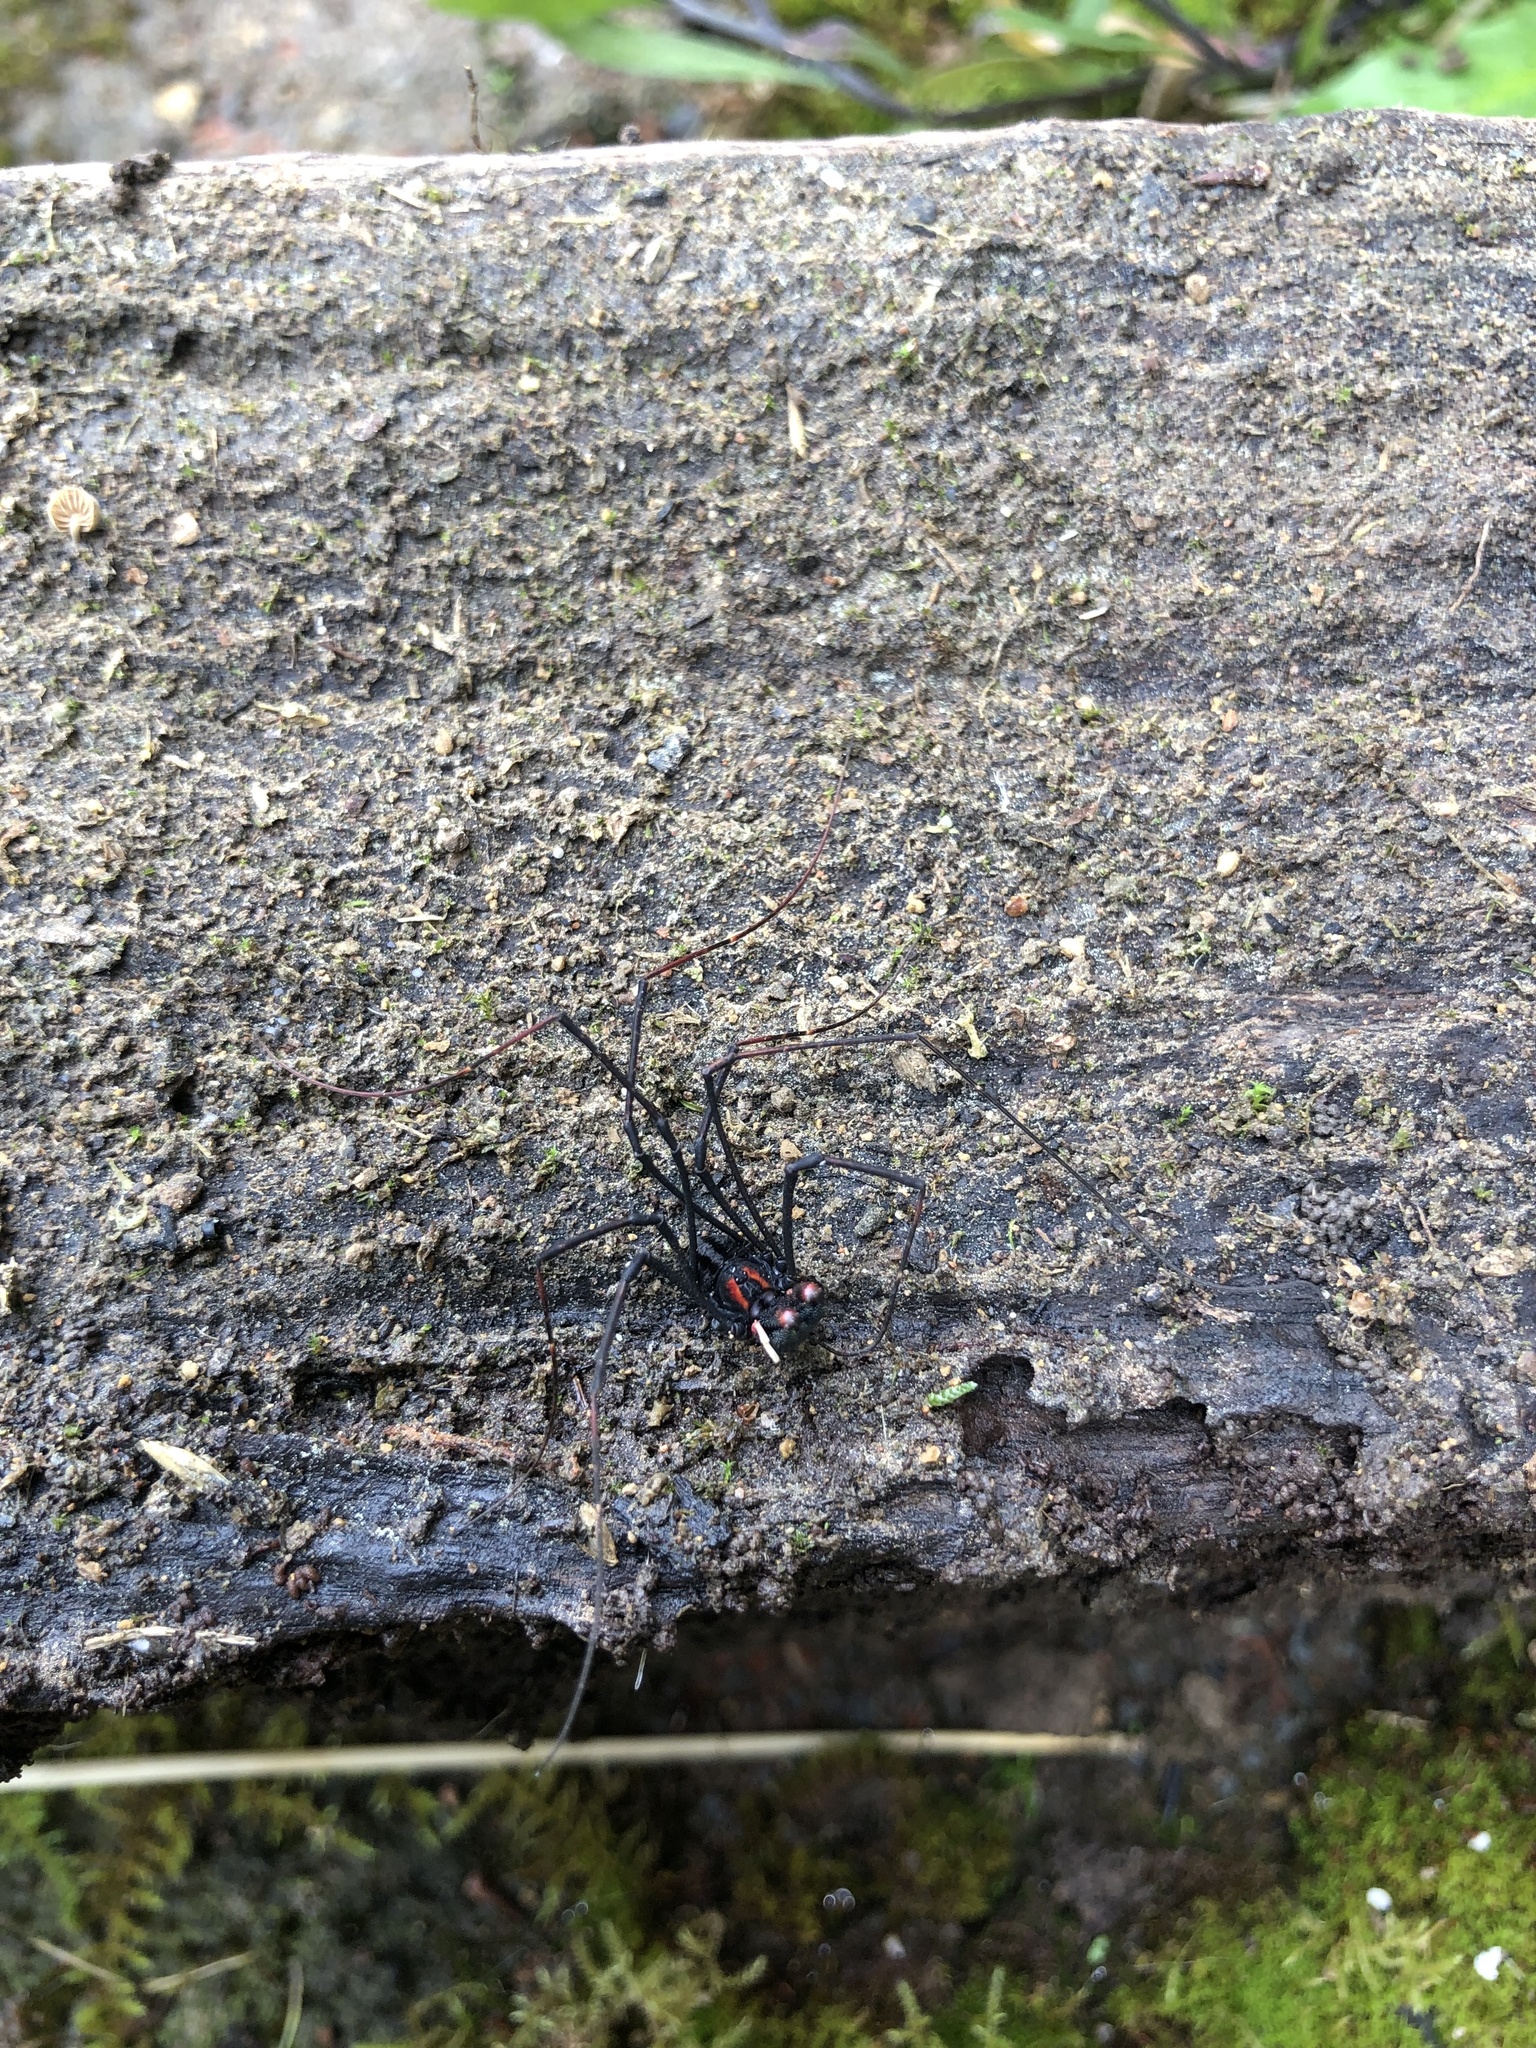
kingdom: Animalia
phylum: Arthropoda
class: Arachnida
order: Opiliones
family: Neopilionidae
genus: Forsteropsalis
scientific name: Forsteropsalis inconstans
